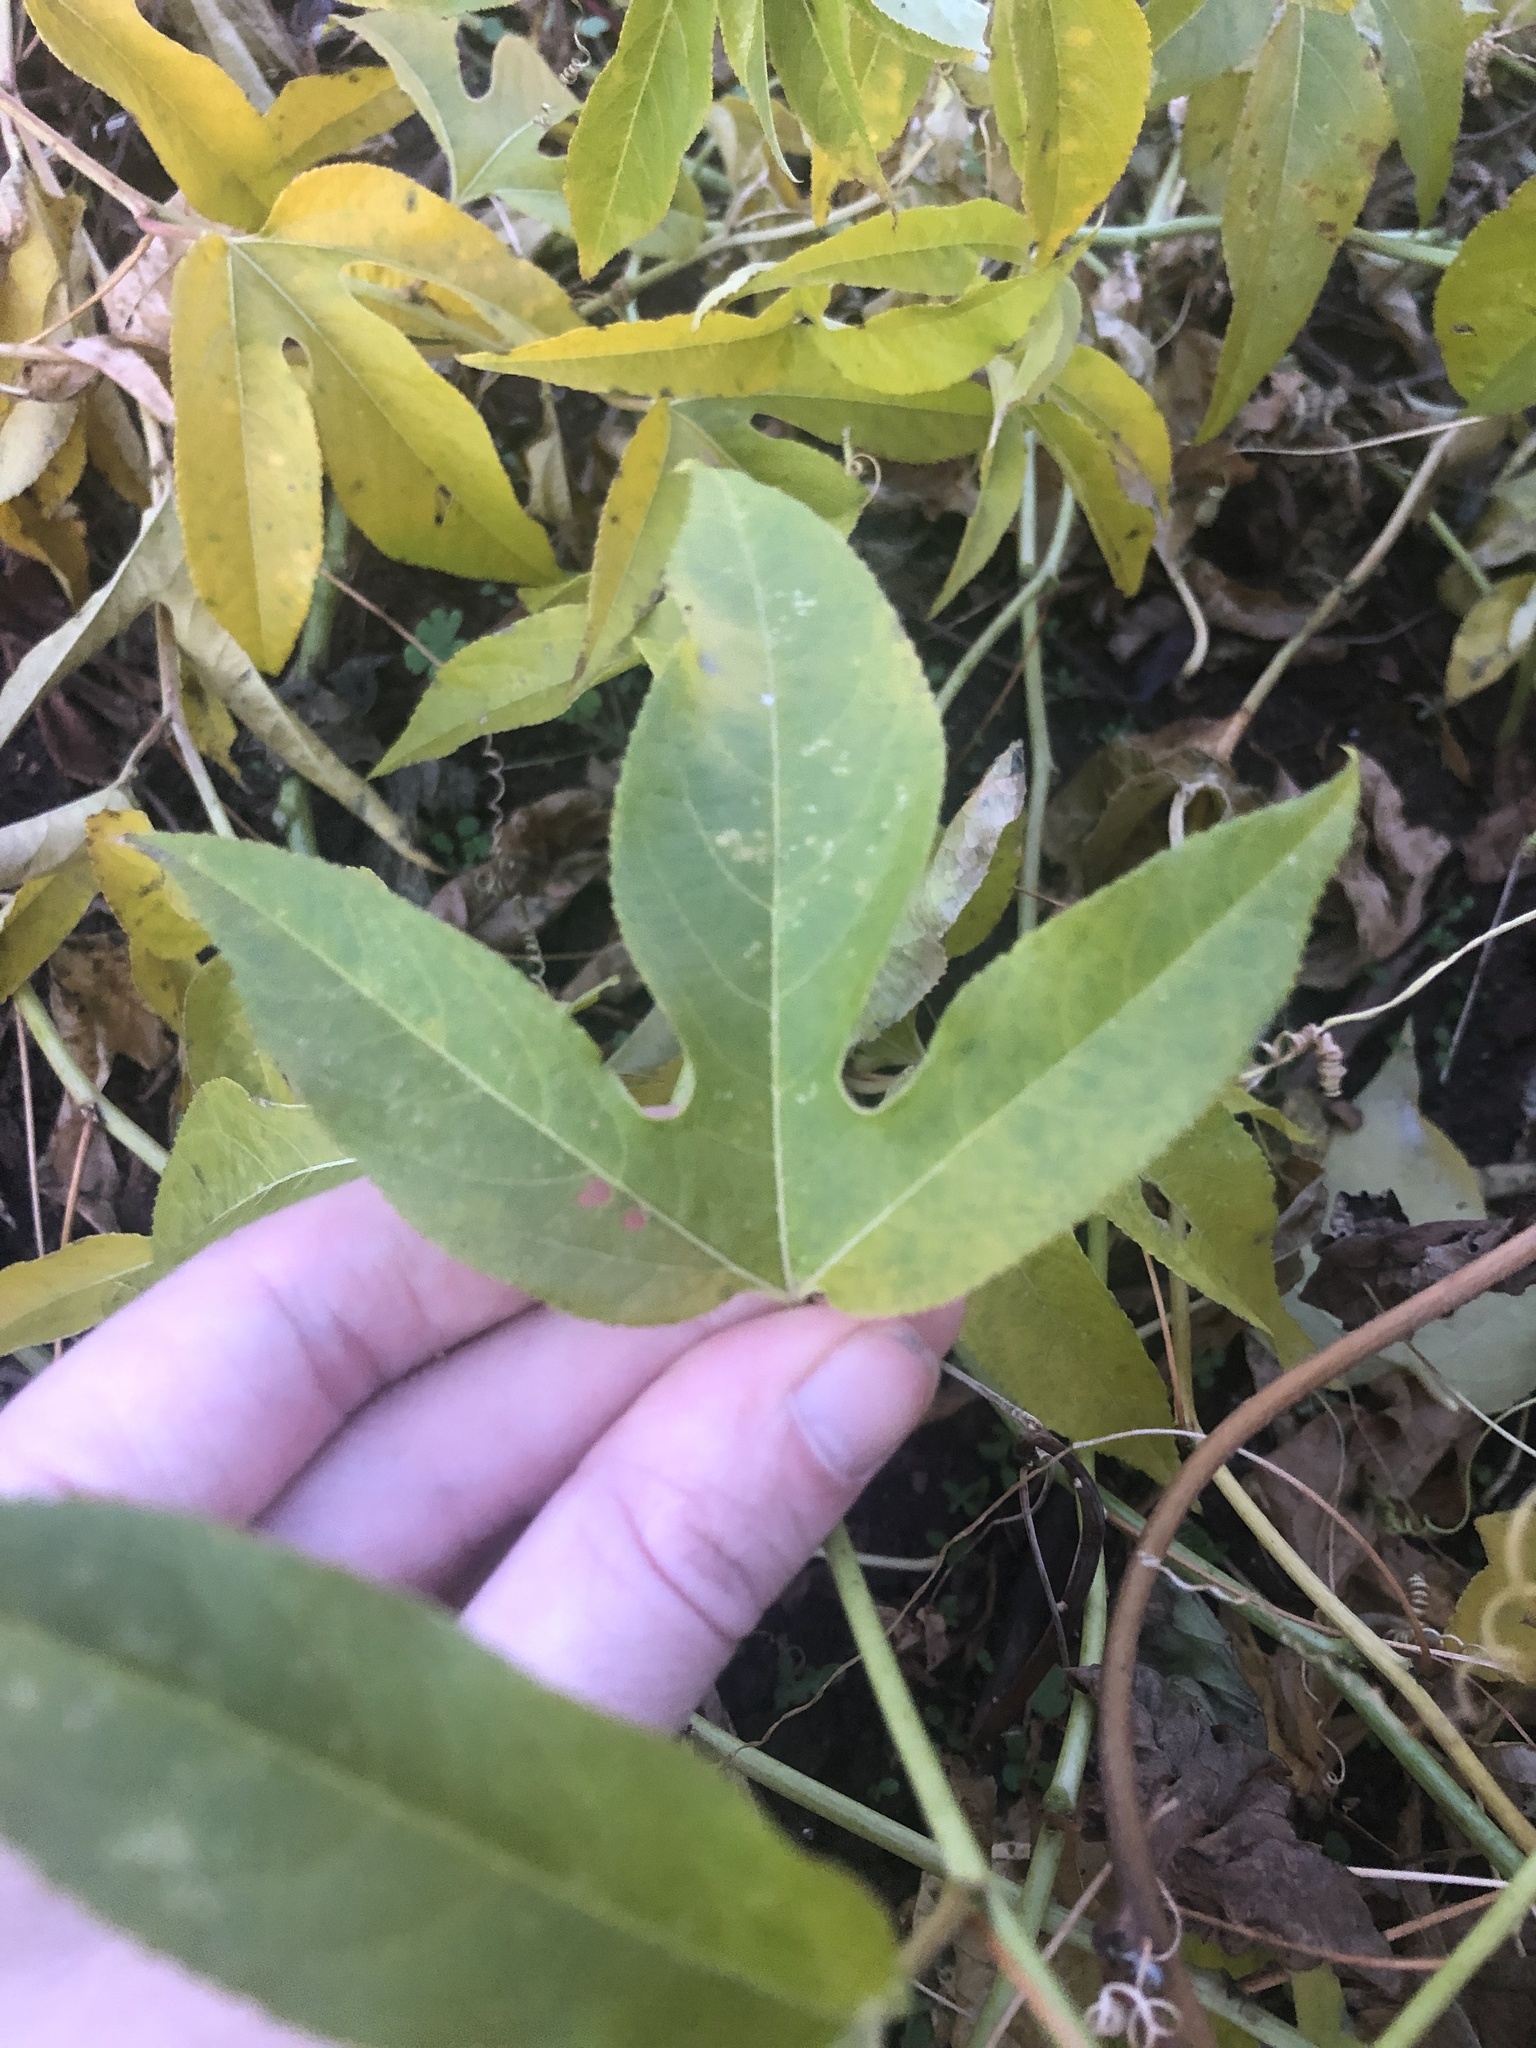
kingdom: Plantae
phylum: Tracheophyta
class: Magnoliopsida
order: Malpighiales
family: Passifloraceae
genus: Passiflora
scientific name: Passiflora incarnata
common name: Apricot-vine
